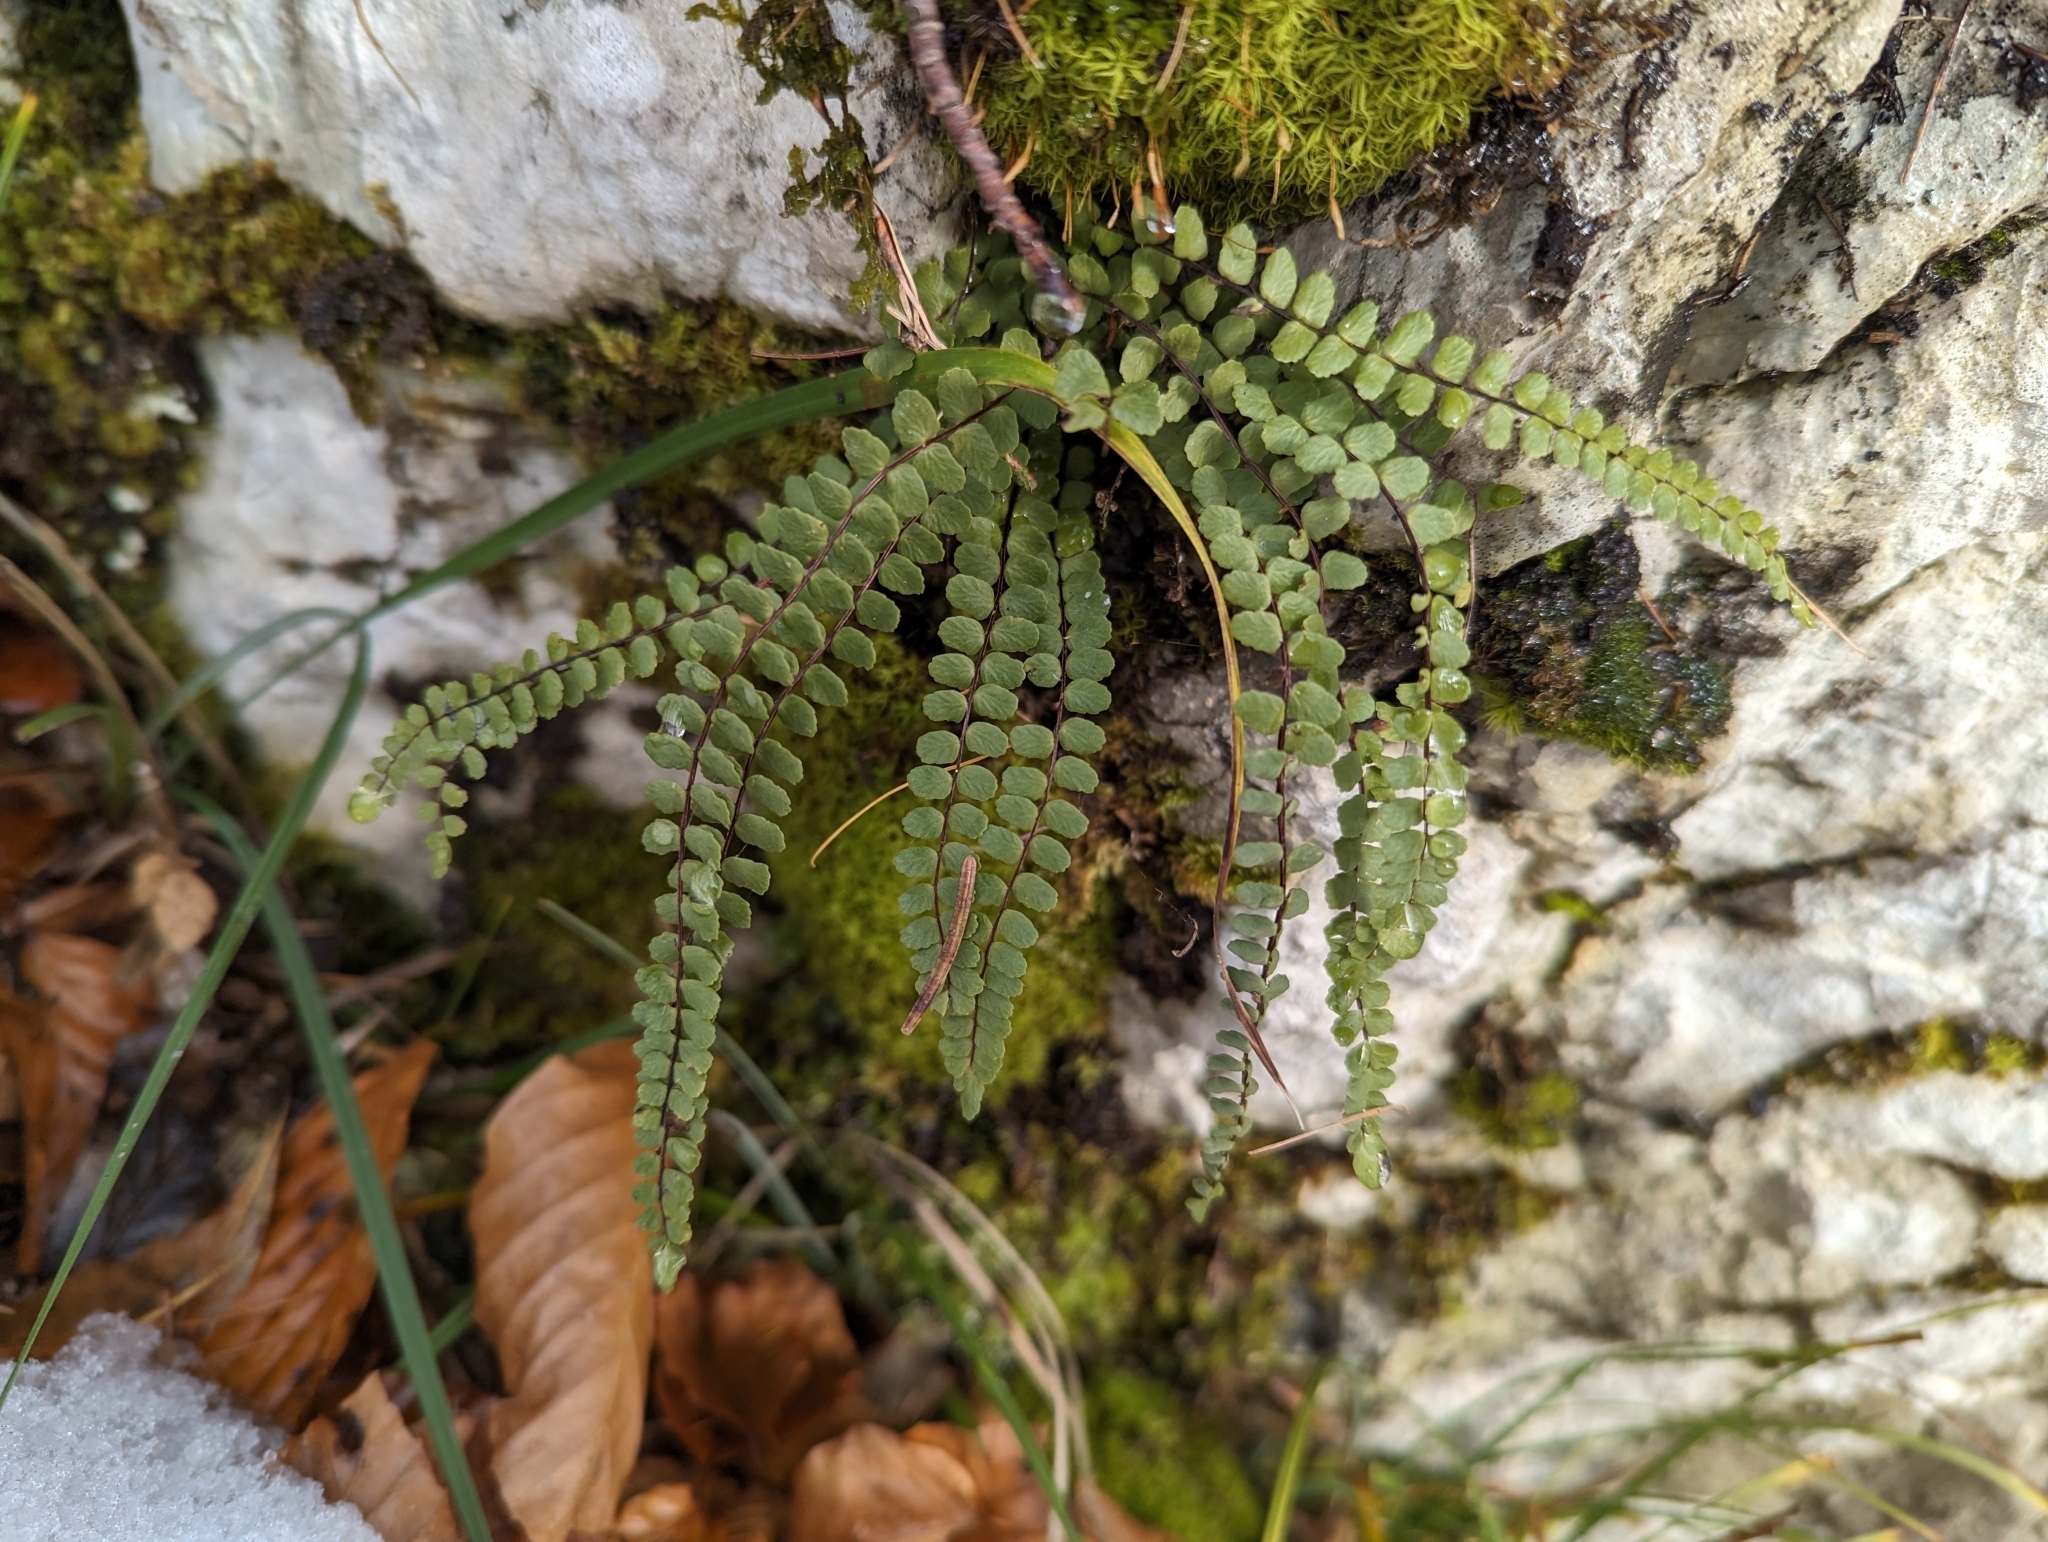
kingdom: Plantae
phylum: Tracheophyta
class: Polypodiopsida
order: Polypodiales
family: Aspleniaceae
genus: Asplenium
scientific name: Asplenium trichomanes
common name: Maidenhair spleenwort
